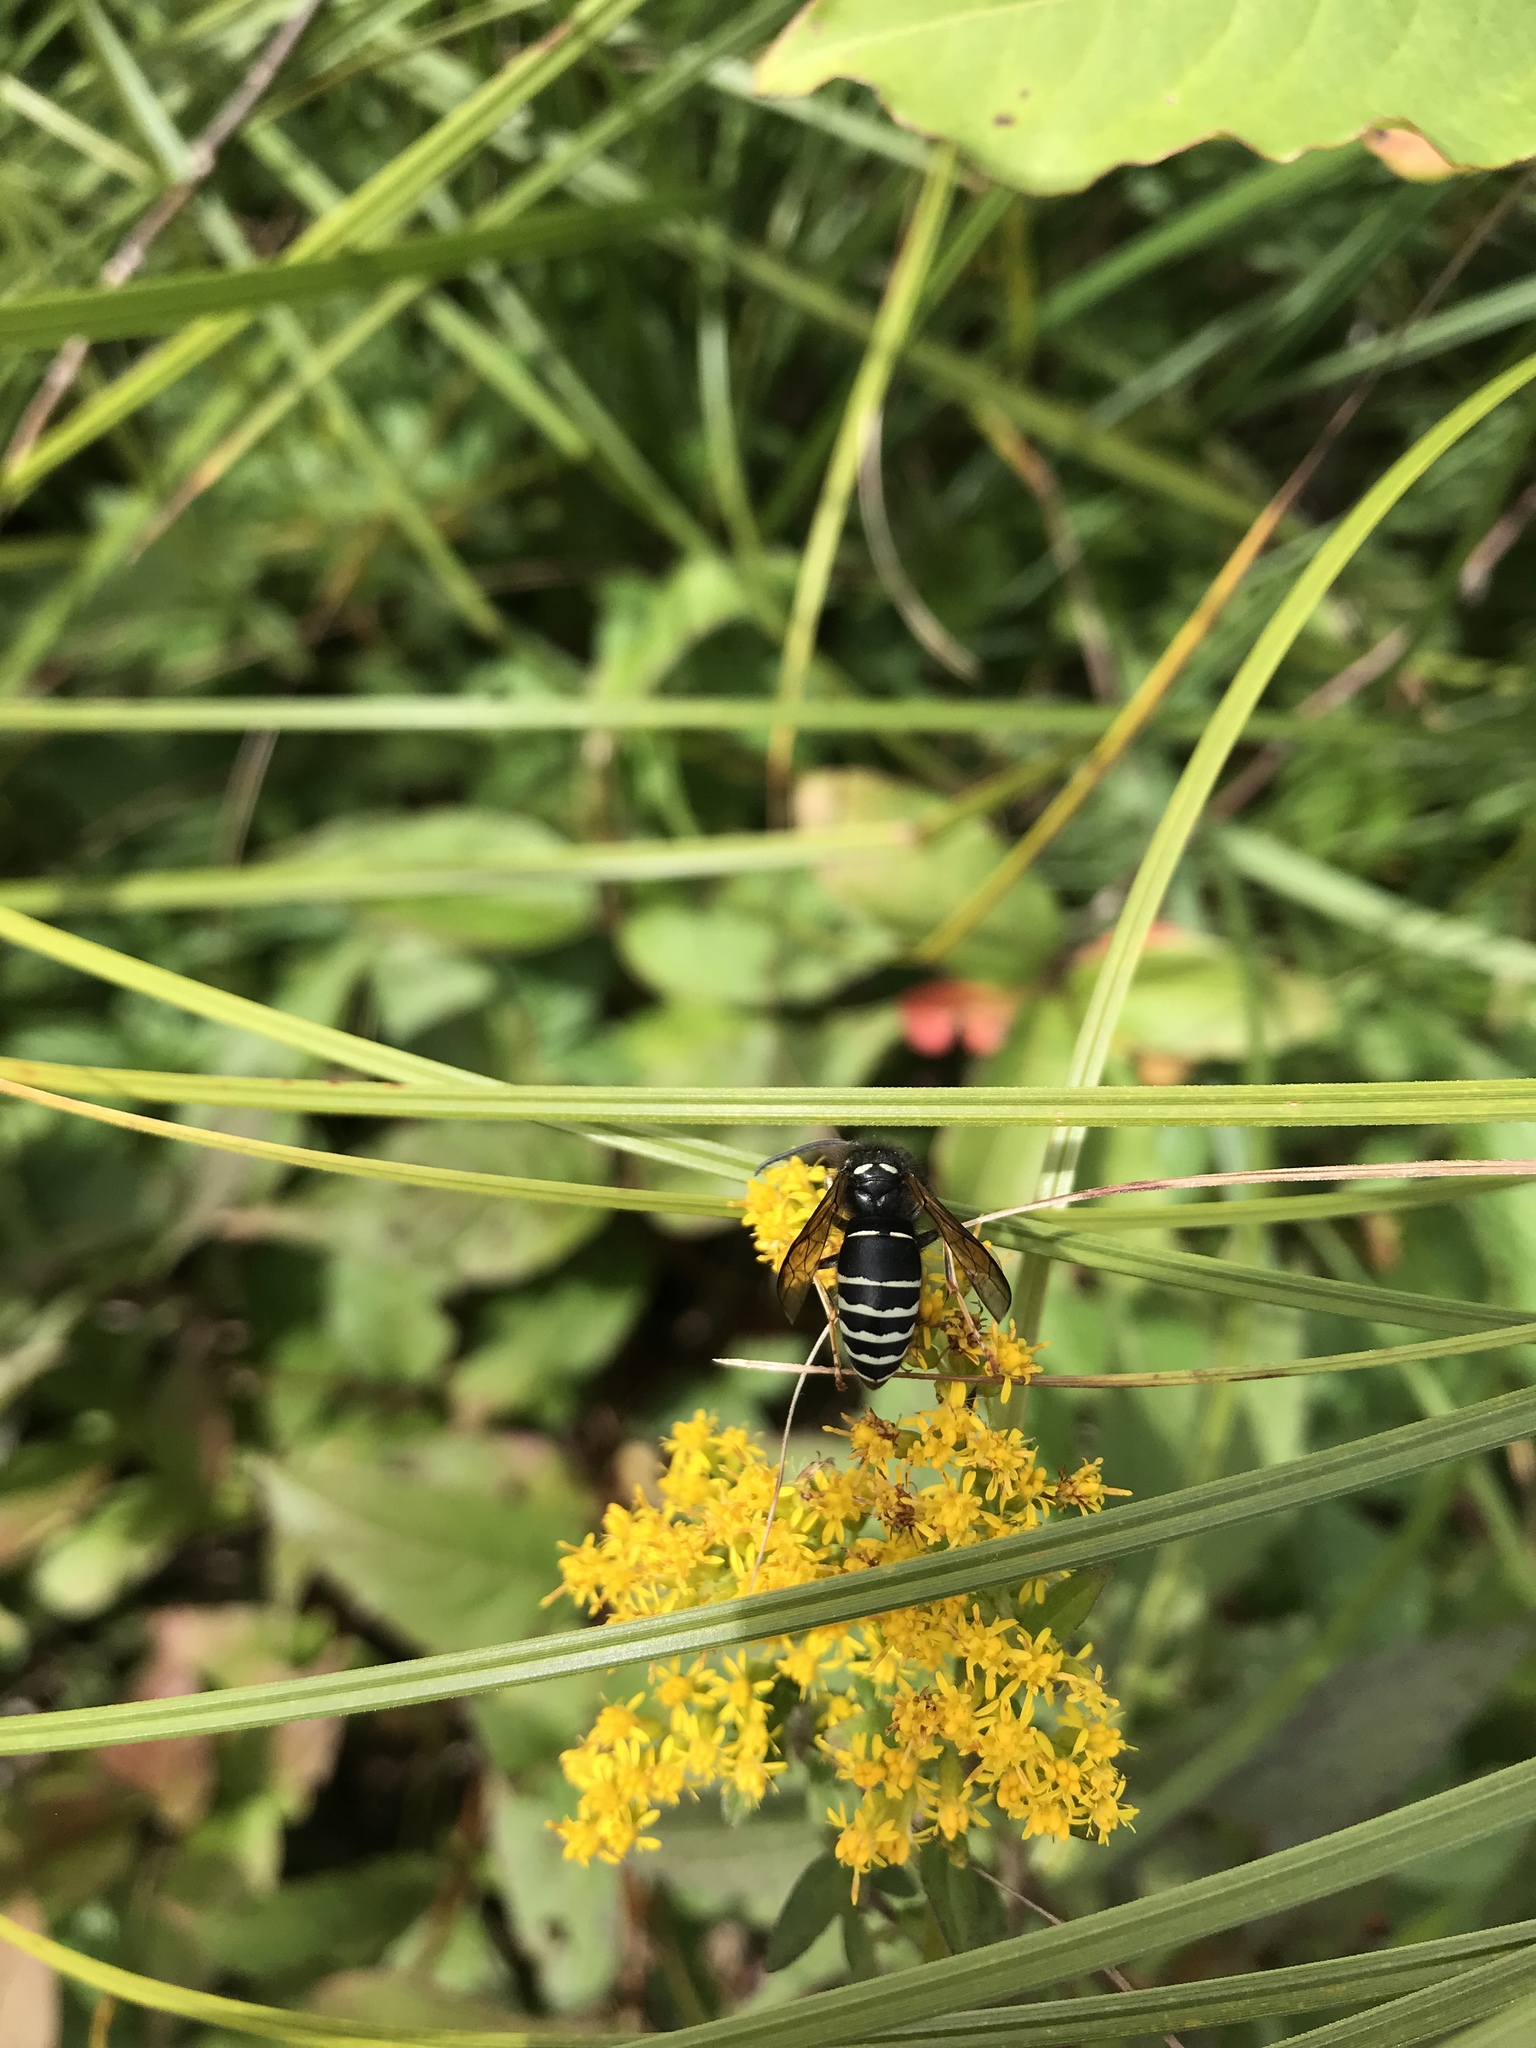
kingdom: Animalia
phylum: Arthropoda
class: Insecta
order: Hymenoptera
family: Vespidae
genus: Vespula
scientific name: Vespula consobrina
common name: Blackjacket
